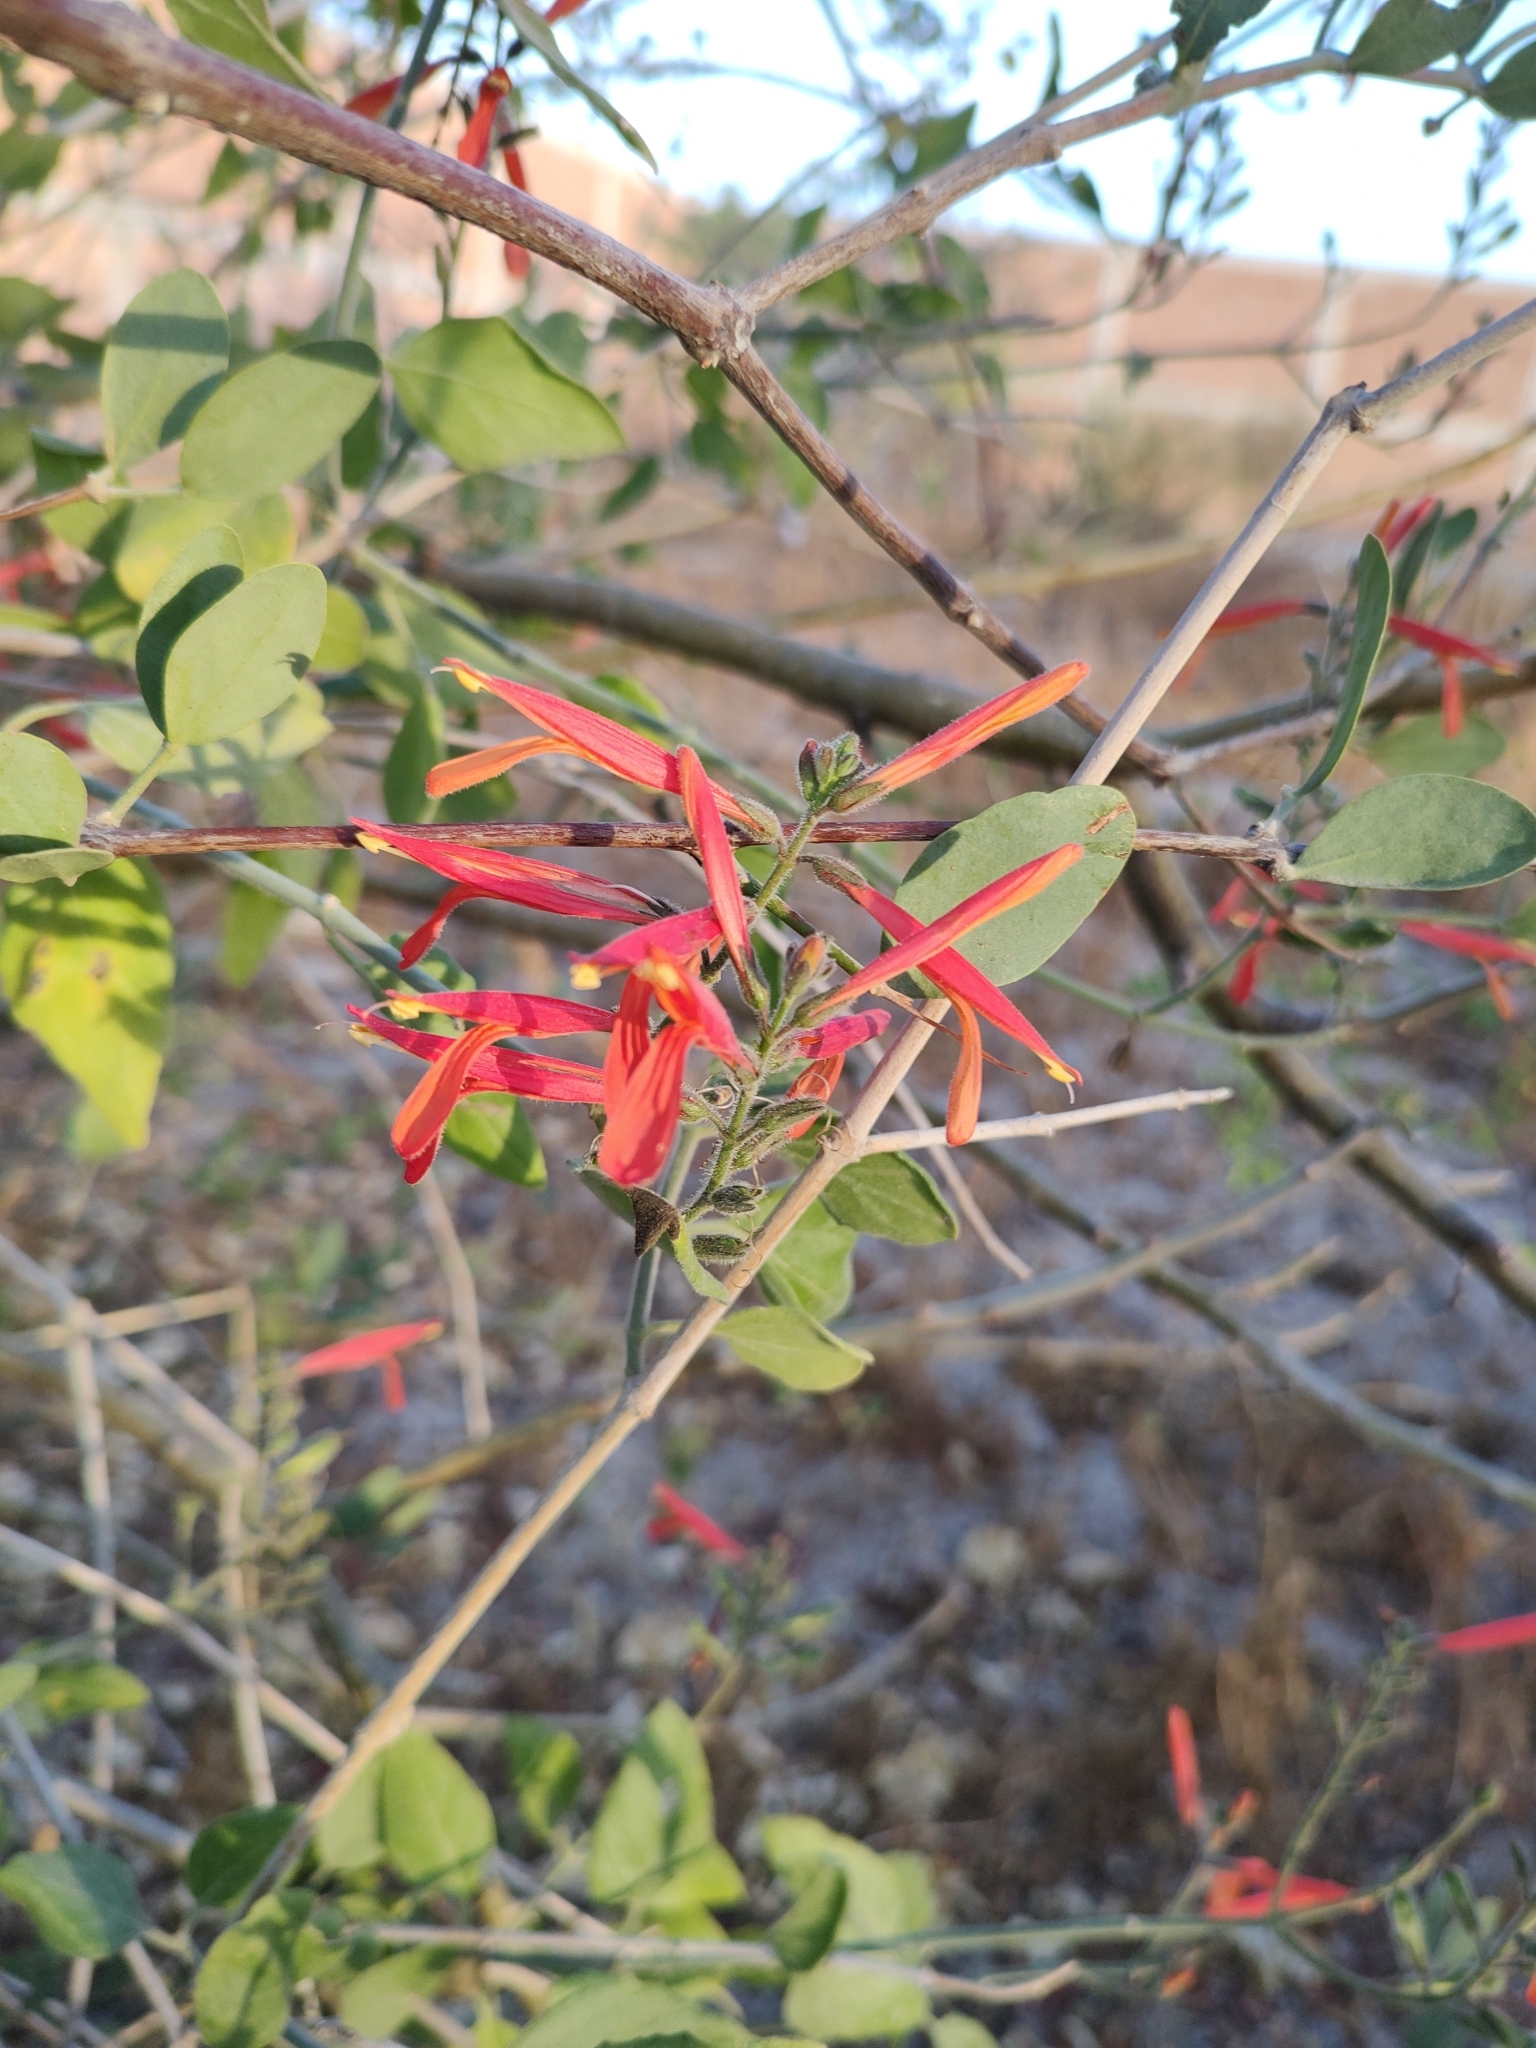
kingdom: Plantae
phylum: Tracheophyta
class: Magnoliopsida
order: Lamiales
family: Acanthaceae
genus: Justicia
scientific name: Justicia californica
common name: Chuparosa-honeysuckle
